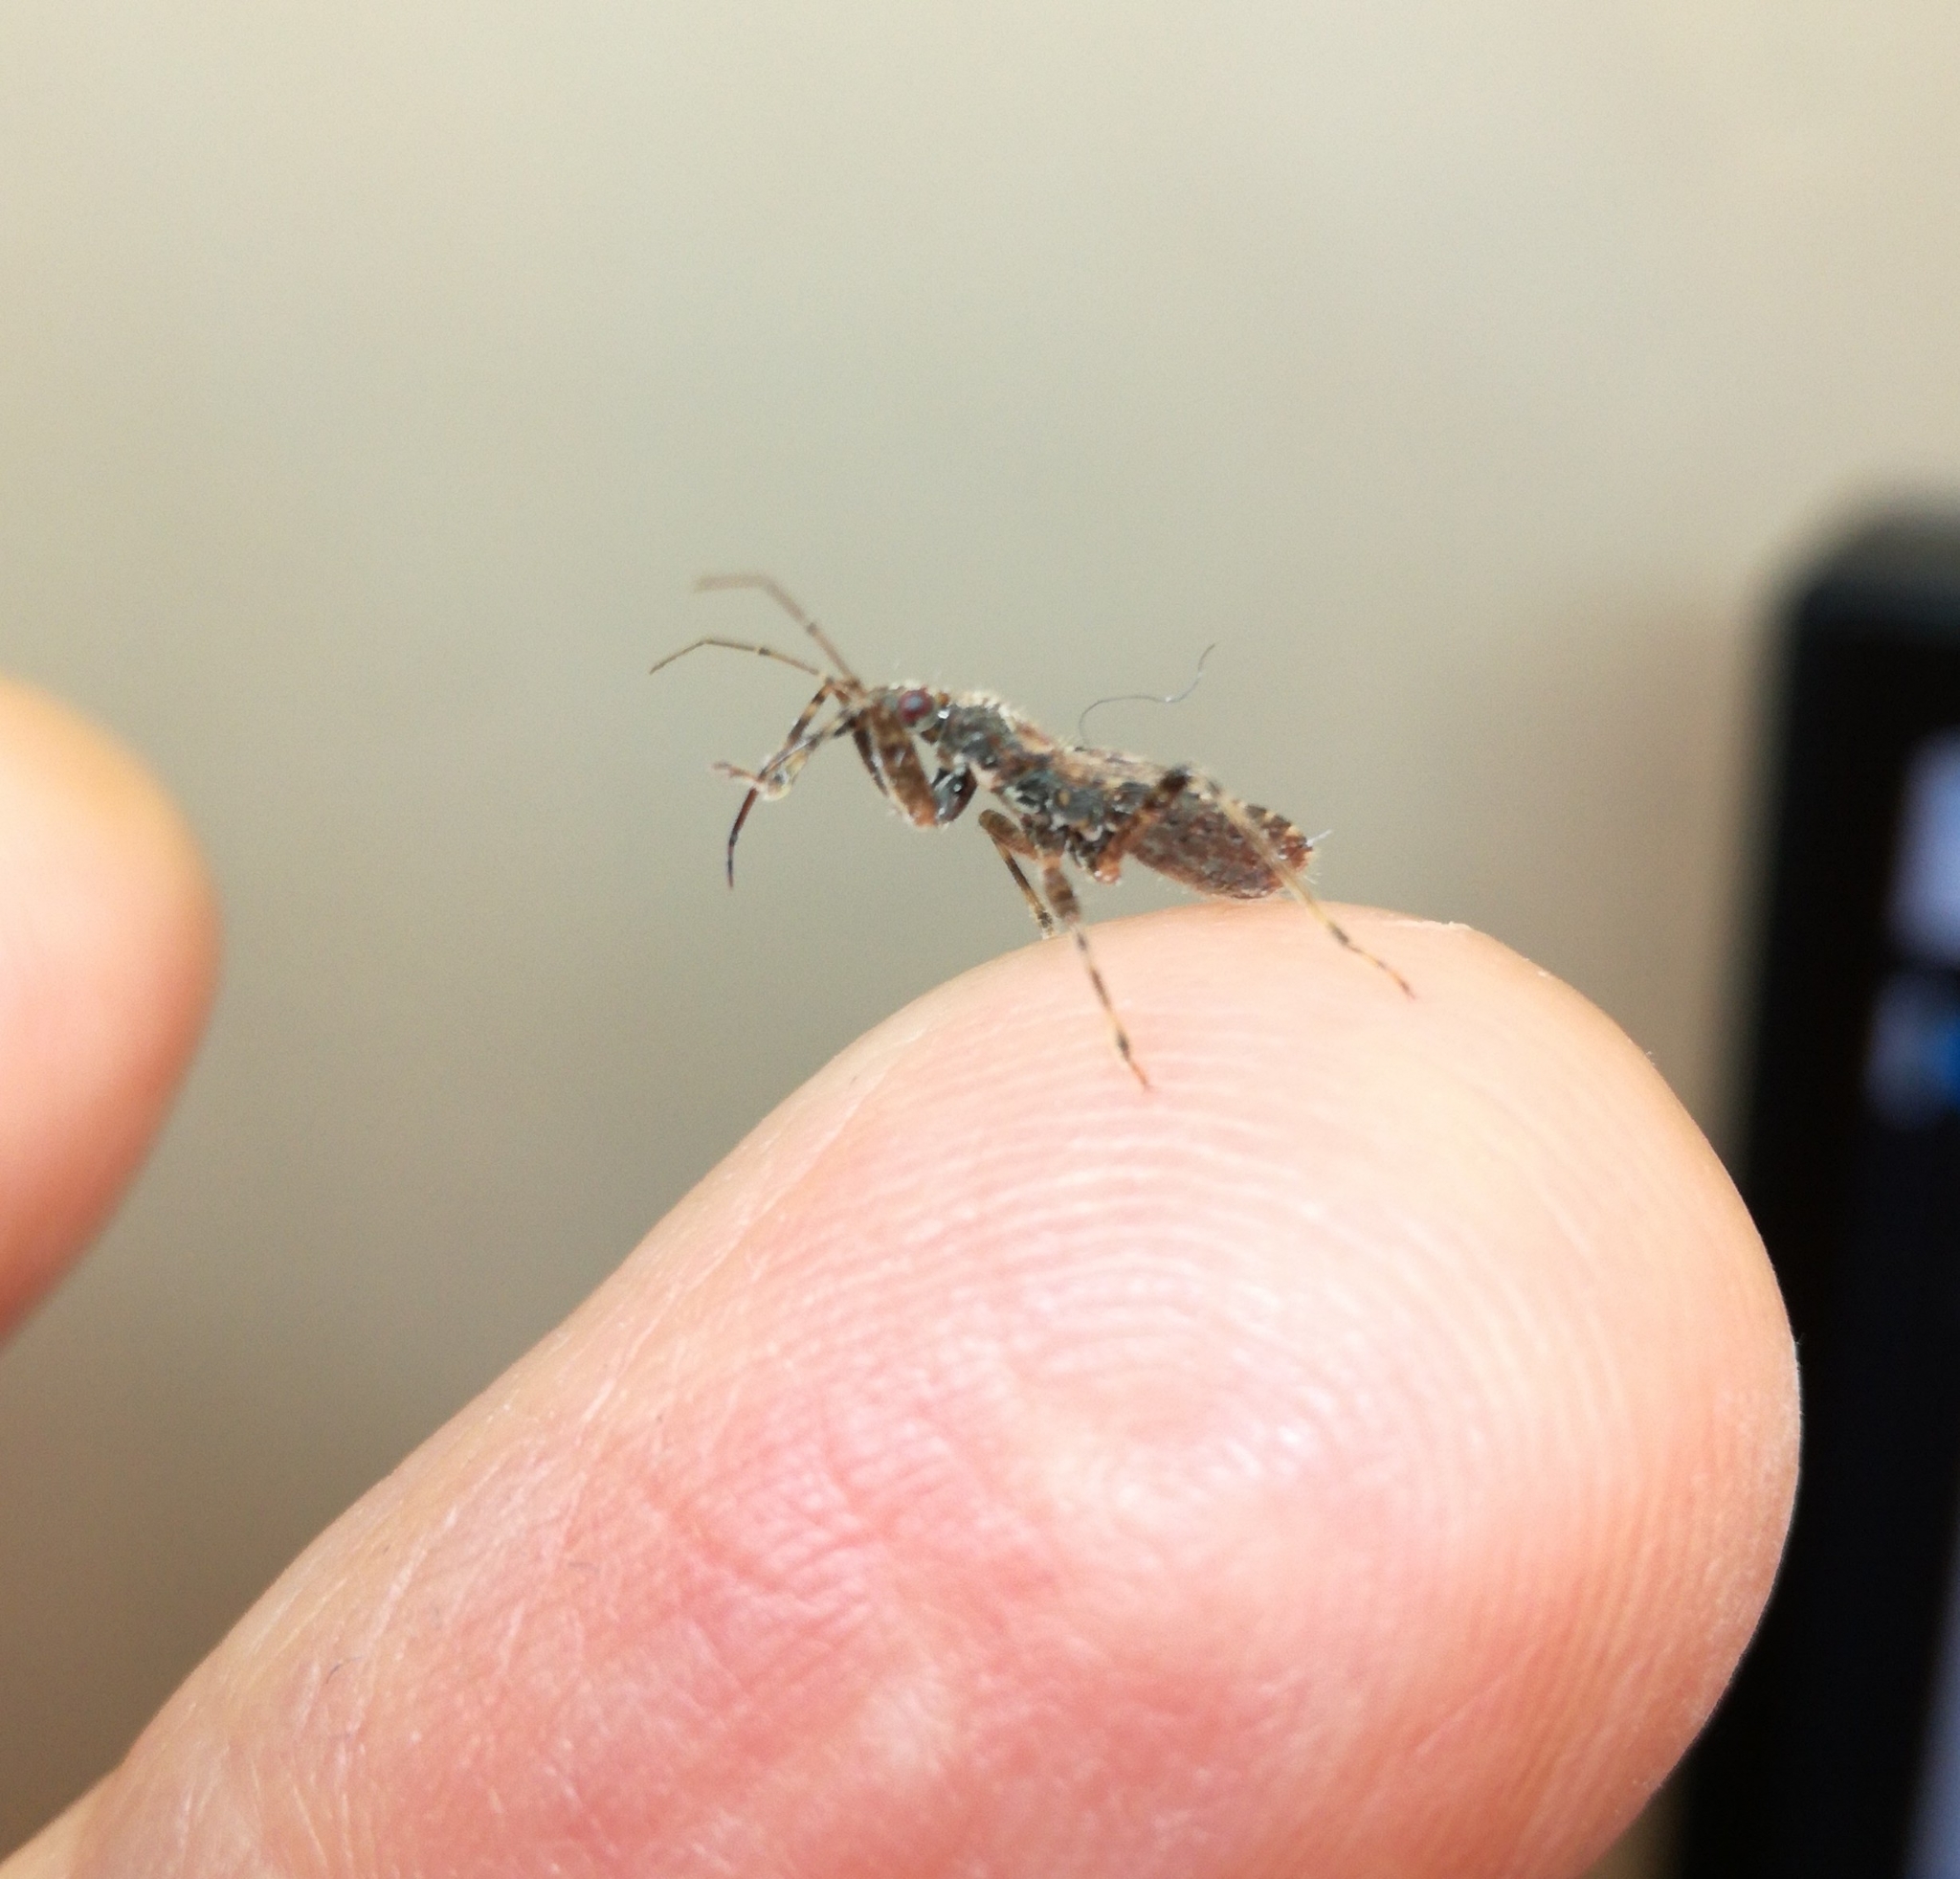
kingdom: Animalia
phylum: Arthropoda
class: Insecta
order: Hemiptera
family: Nabidae
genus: Himacerus
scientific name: Himacerus mirmicoides
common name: Ant damsel bug
